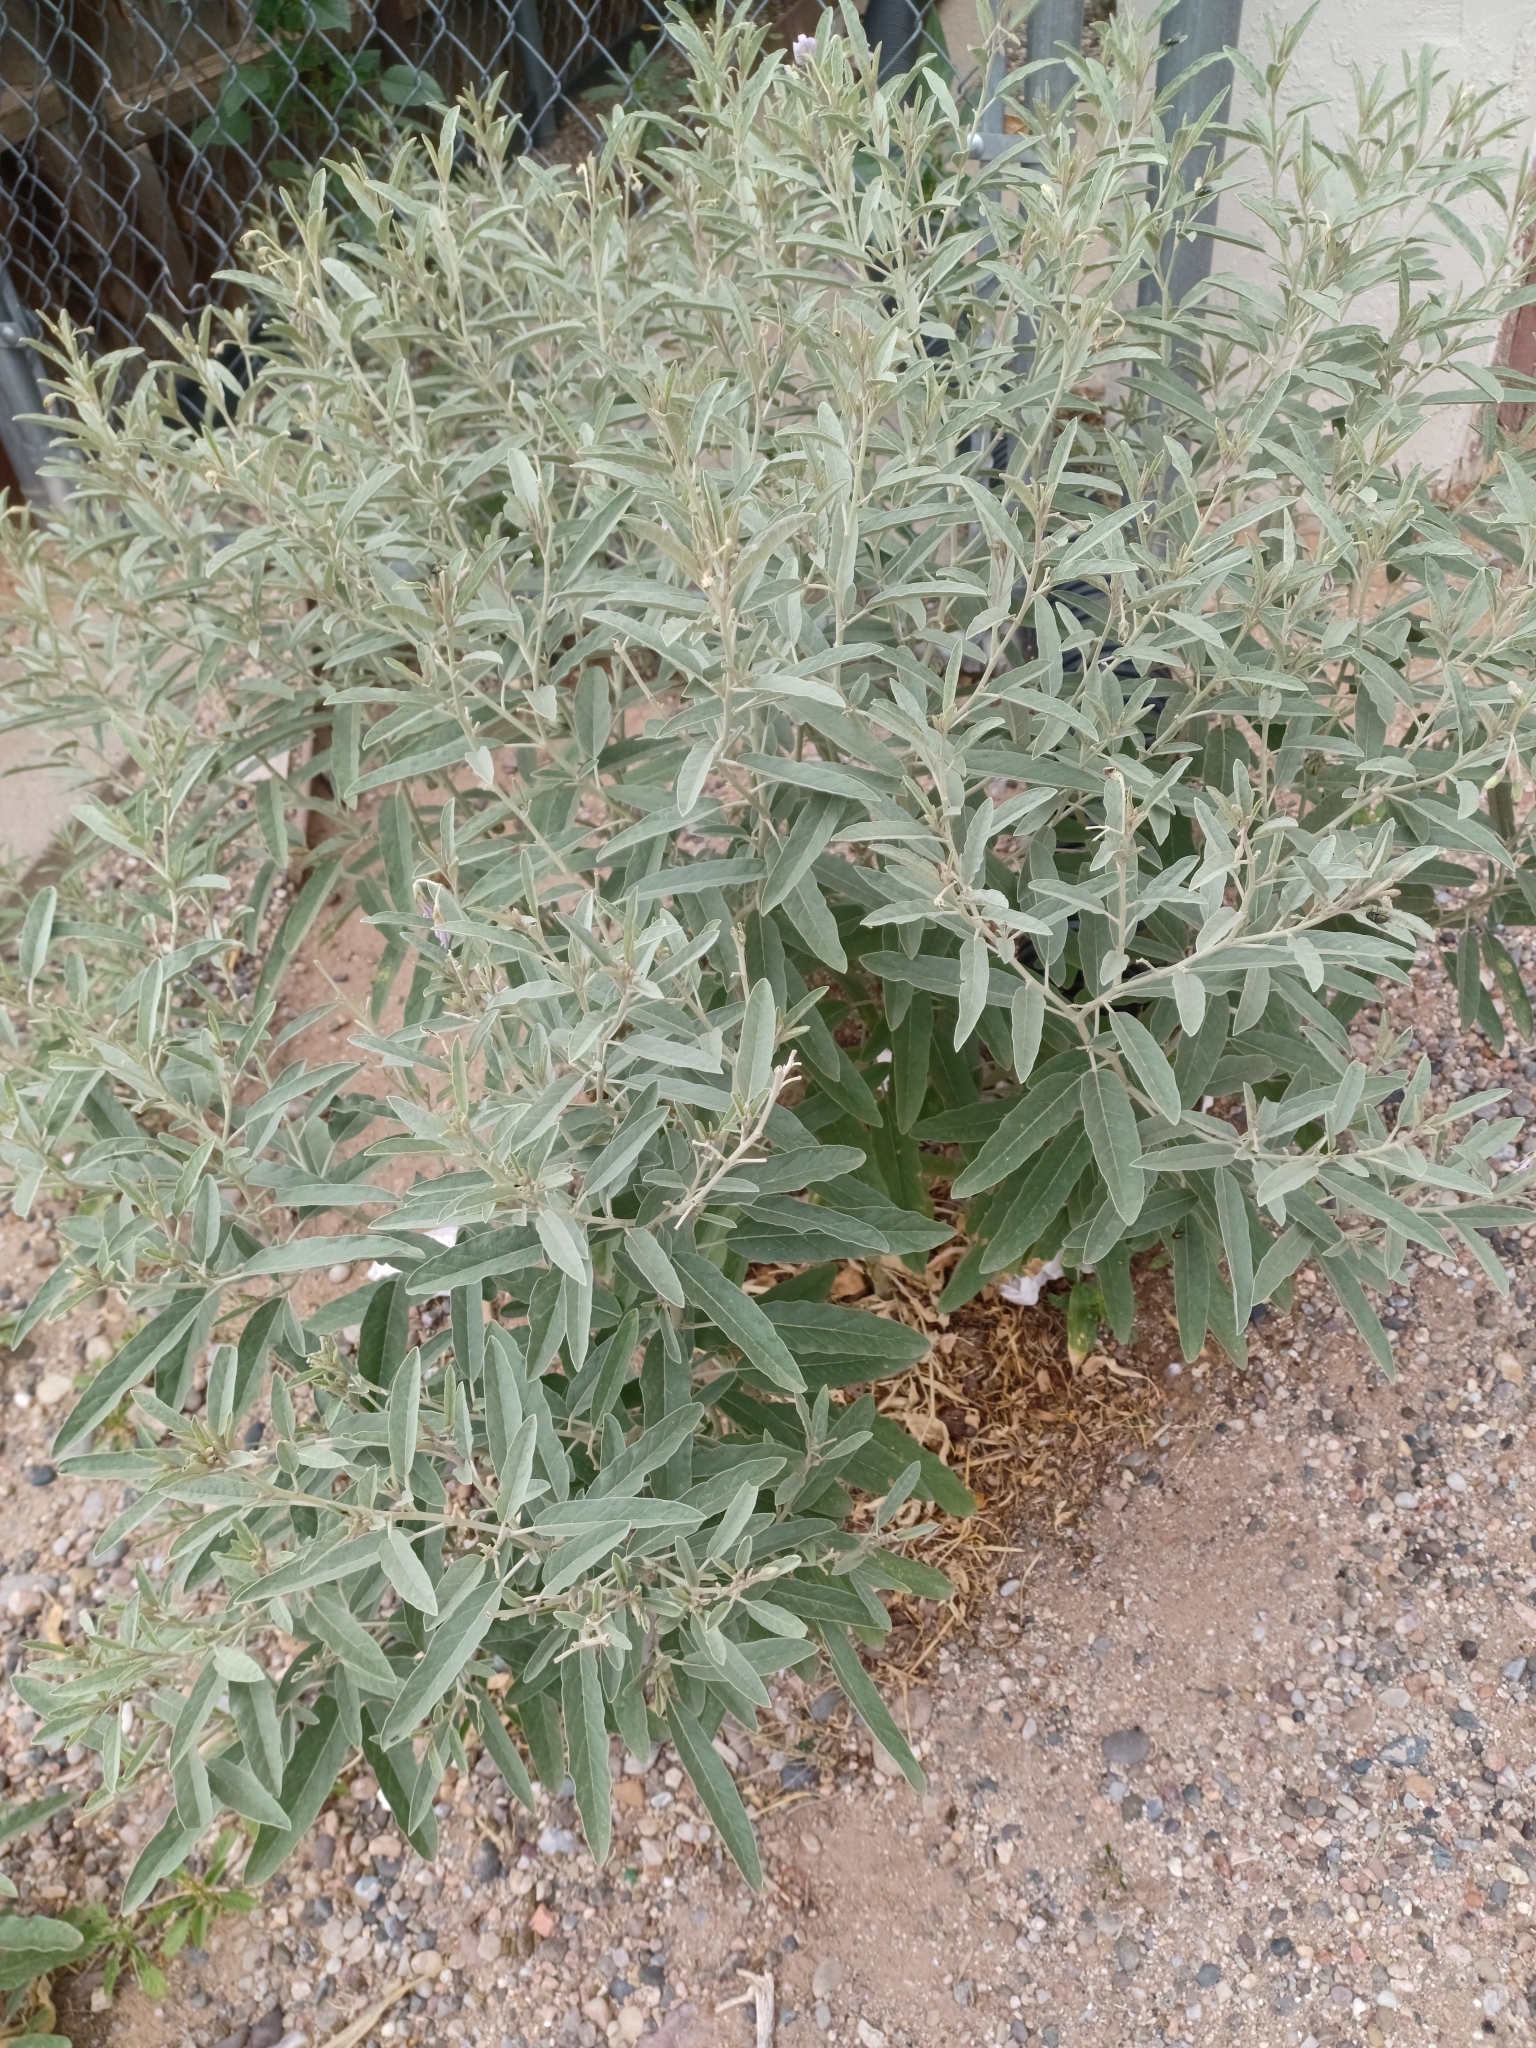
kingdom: Plantae
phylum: Tracheophyta
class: Magnoliopsida
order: Solanales
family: Solanaceae
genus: Solanum
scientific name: Solanum elaeagnifolium
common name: Silverleaf nightshade
